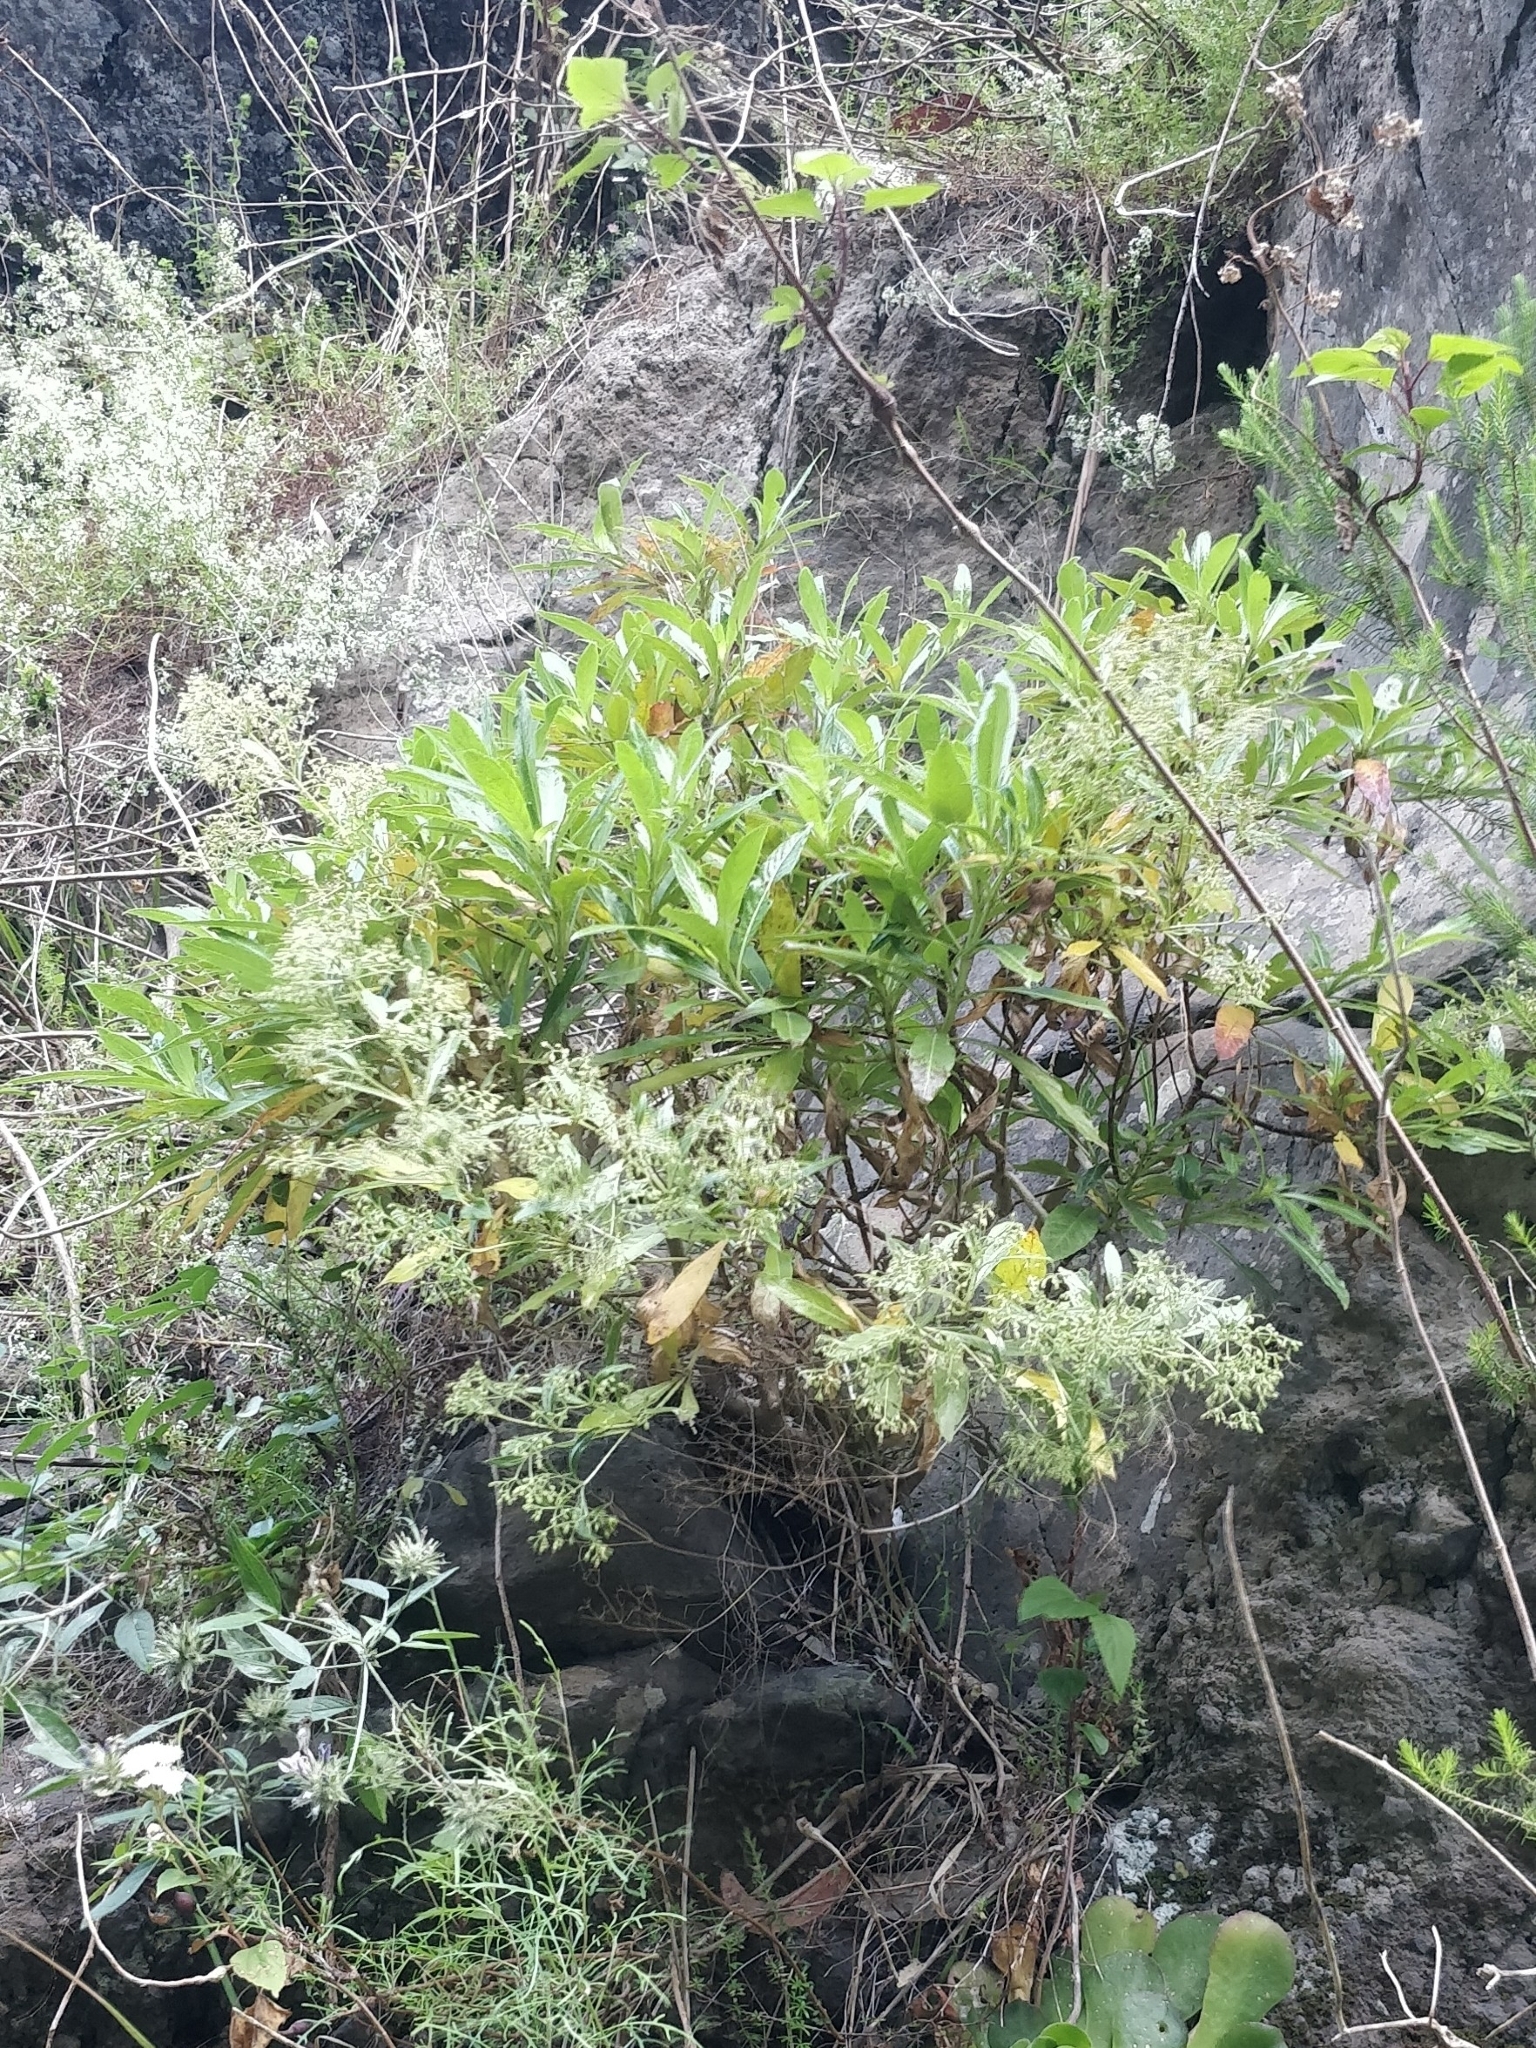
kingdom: Plantae
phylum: Tracheophyta
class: Magnoliopsida
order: Gentianales
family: Rubiaceae
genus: Phyllis
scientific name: Phyllis nobla
